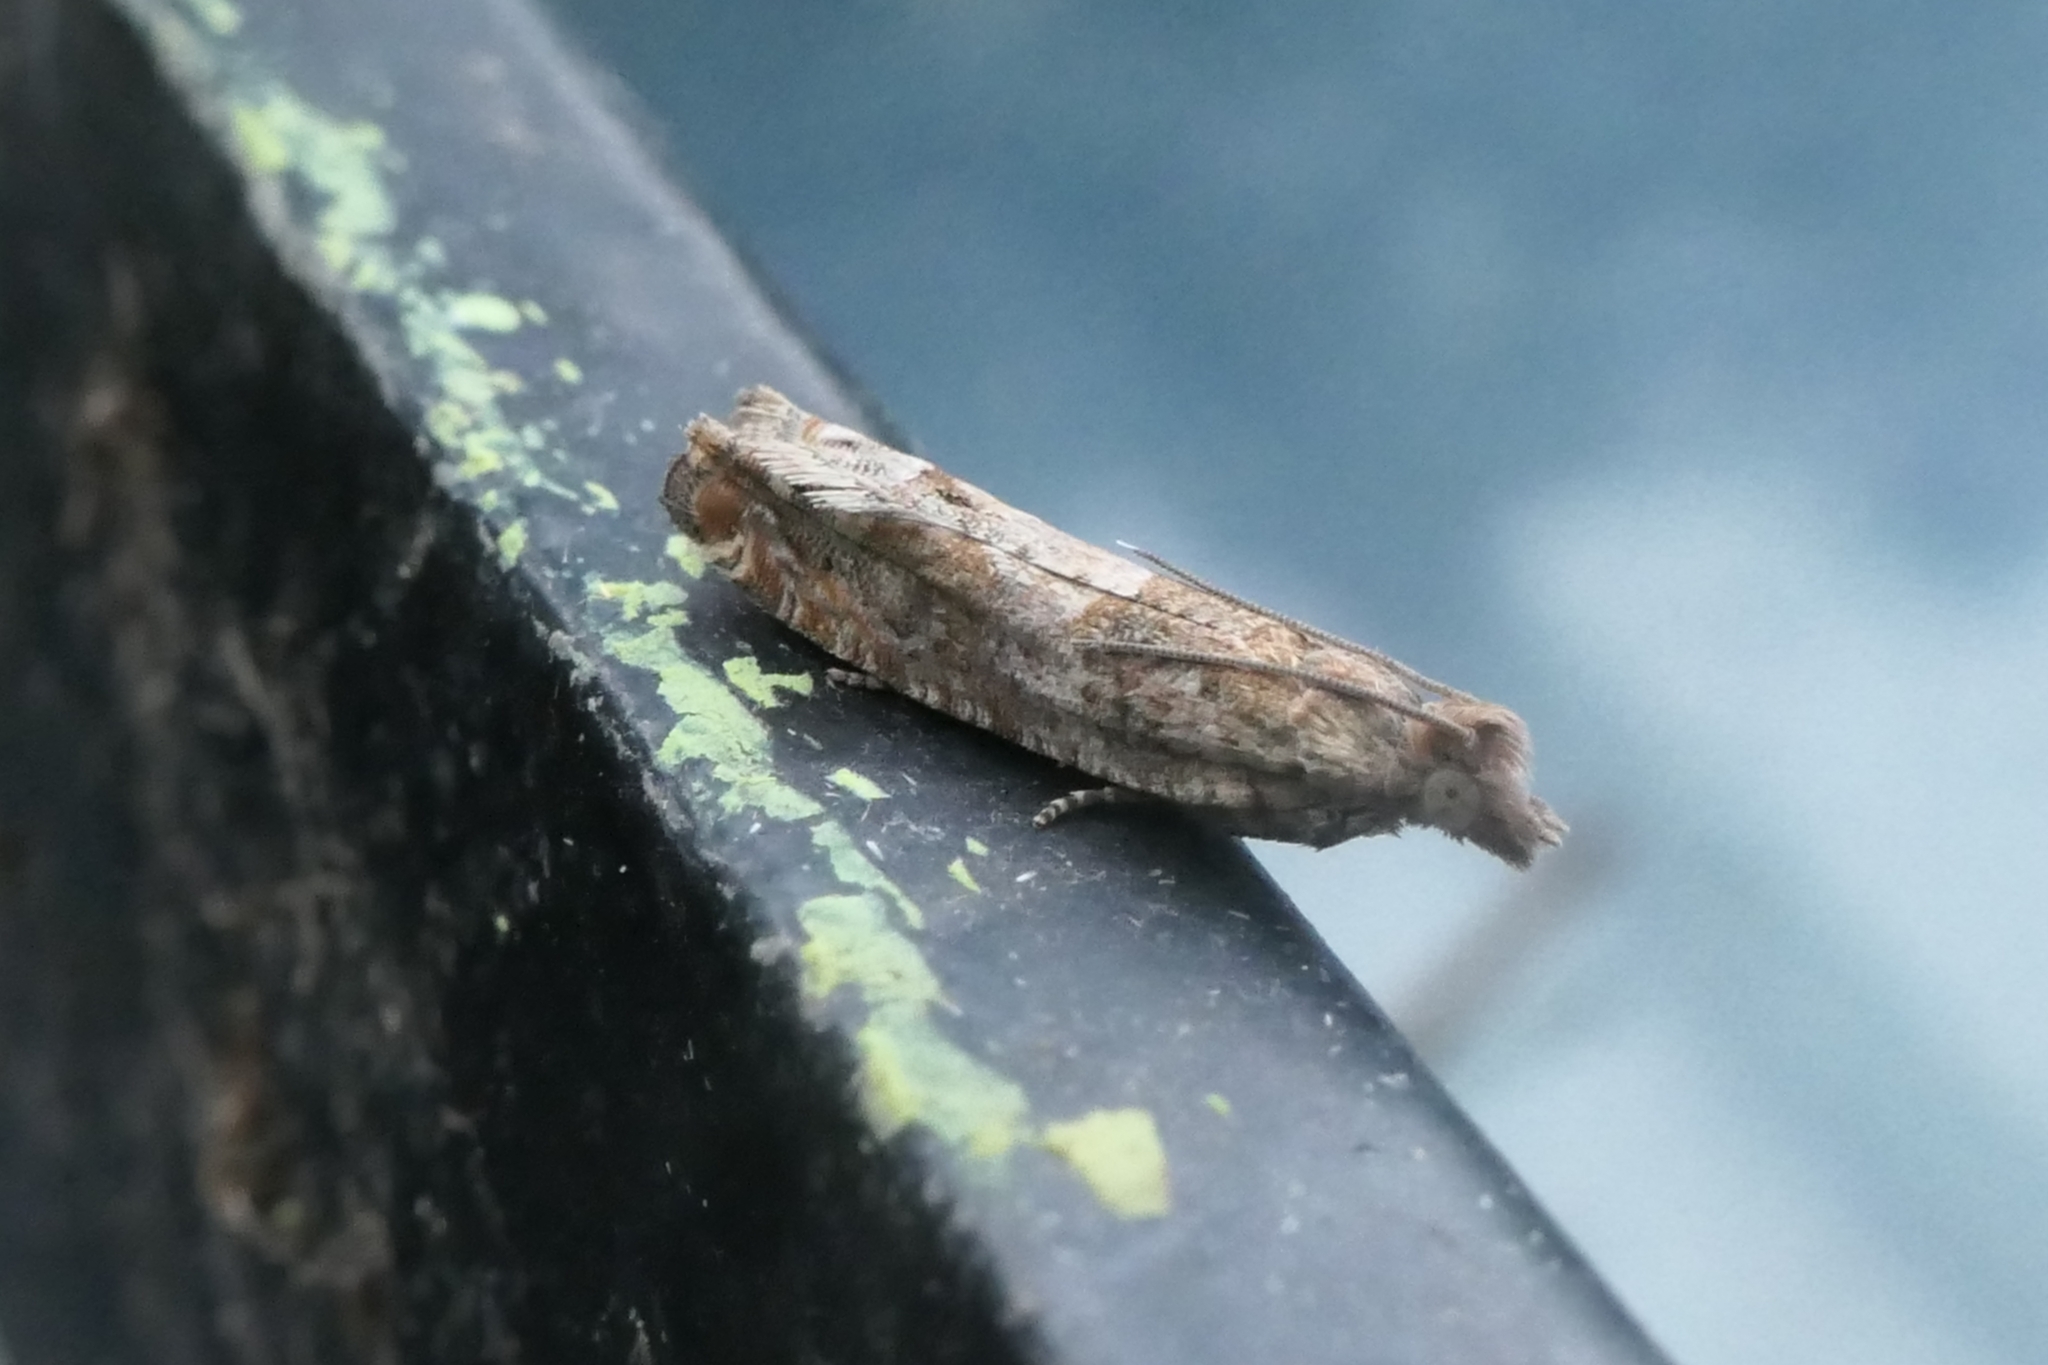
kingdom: Animalia
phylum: Arthropoda
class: Insecta
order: Lepidoptera
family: Tortricidae
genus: Crocidosema
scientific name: Crocidosema plebejana
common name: Southern bell
